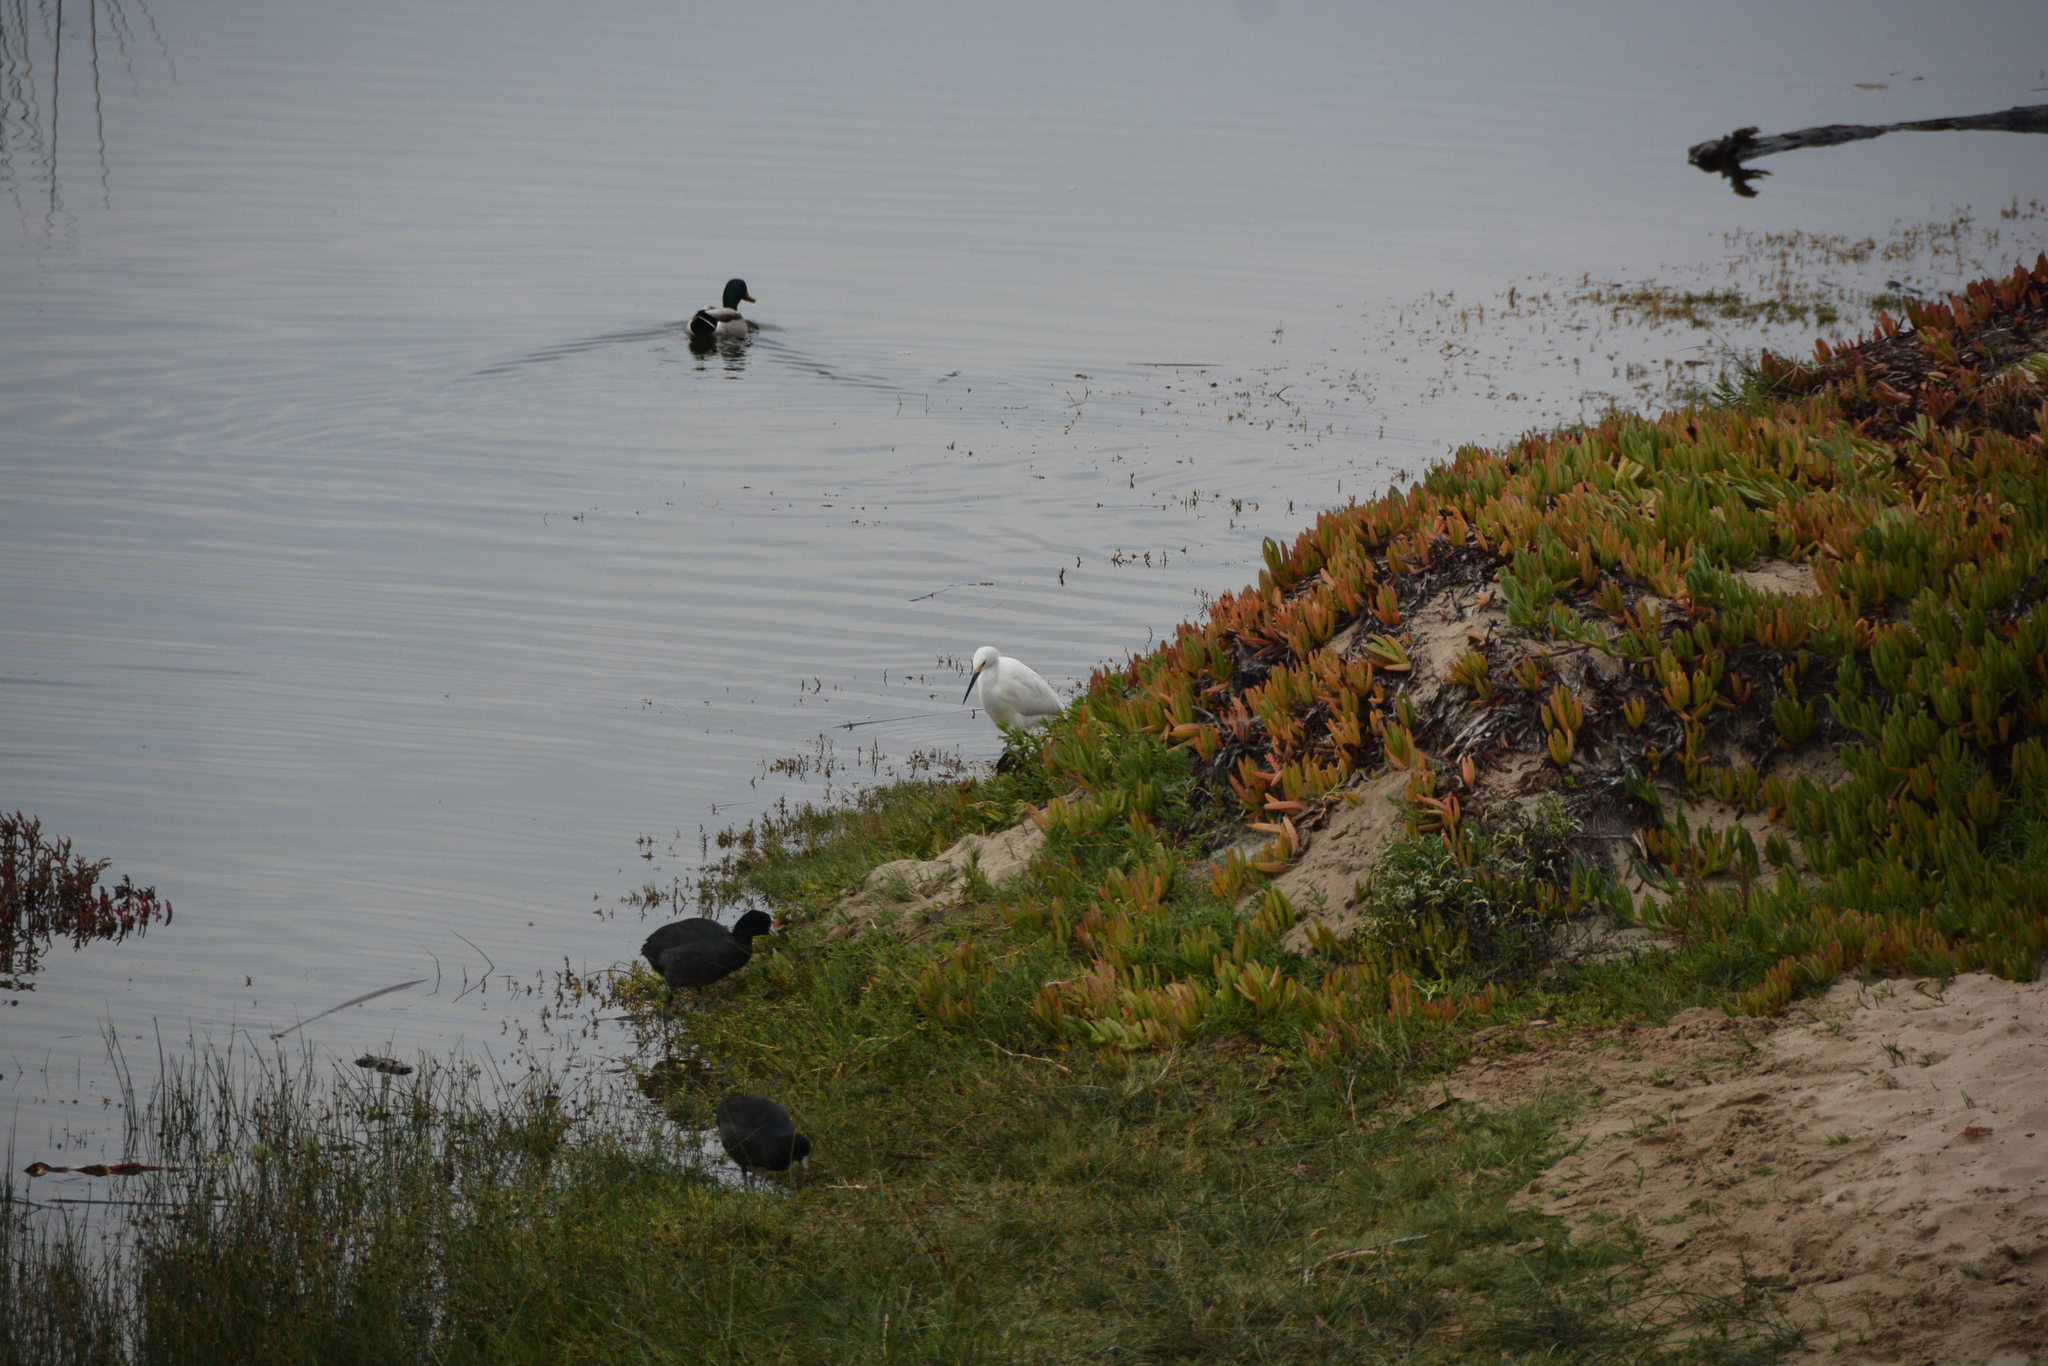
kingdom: Animalia
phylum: Chordata
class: Aves
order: Pelecaniformes
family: Ardeidae
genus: Egretta
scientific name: Egretta thula
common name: Snowy egret
